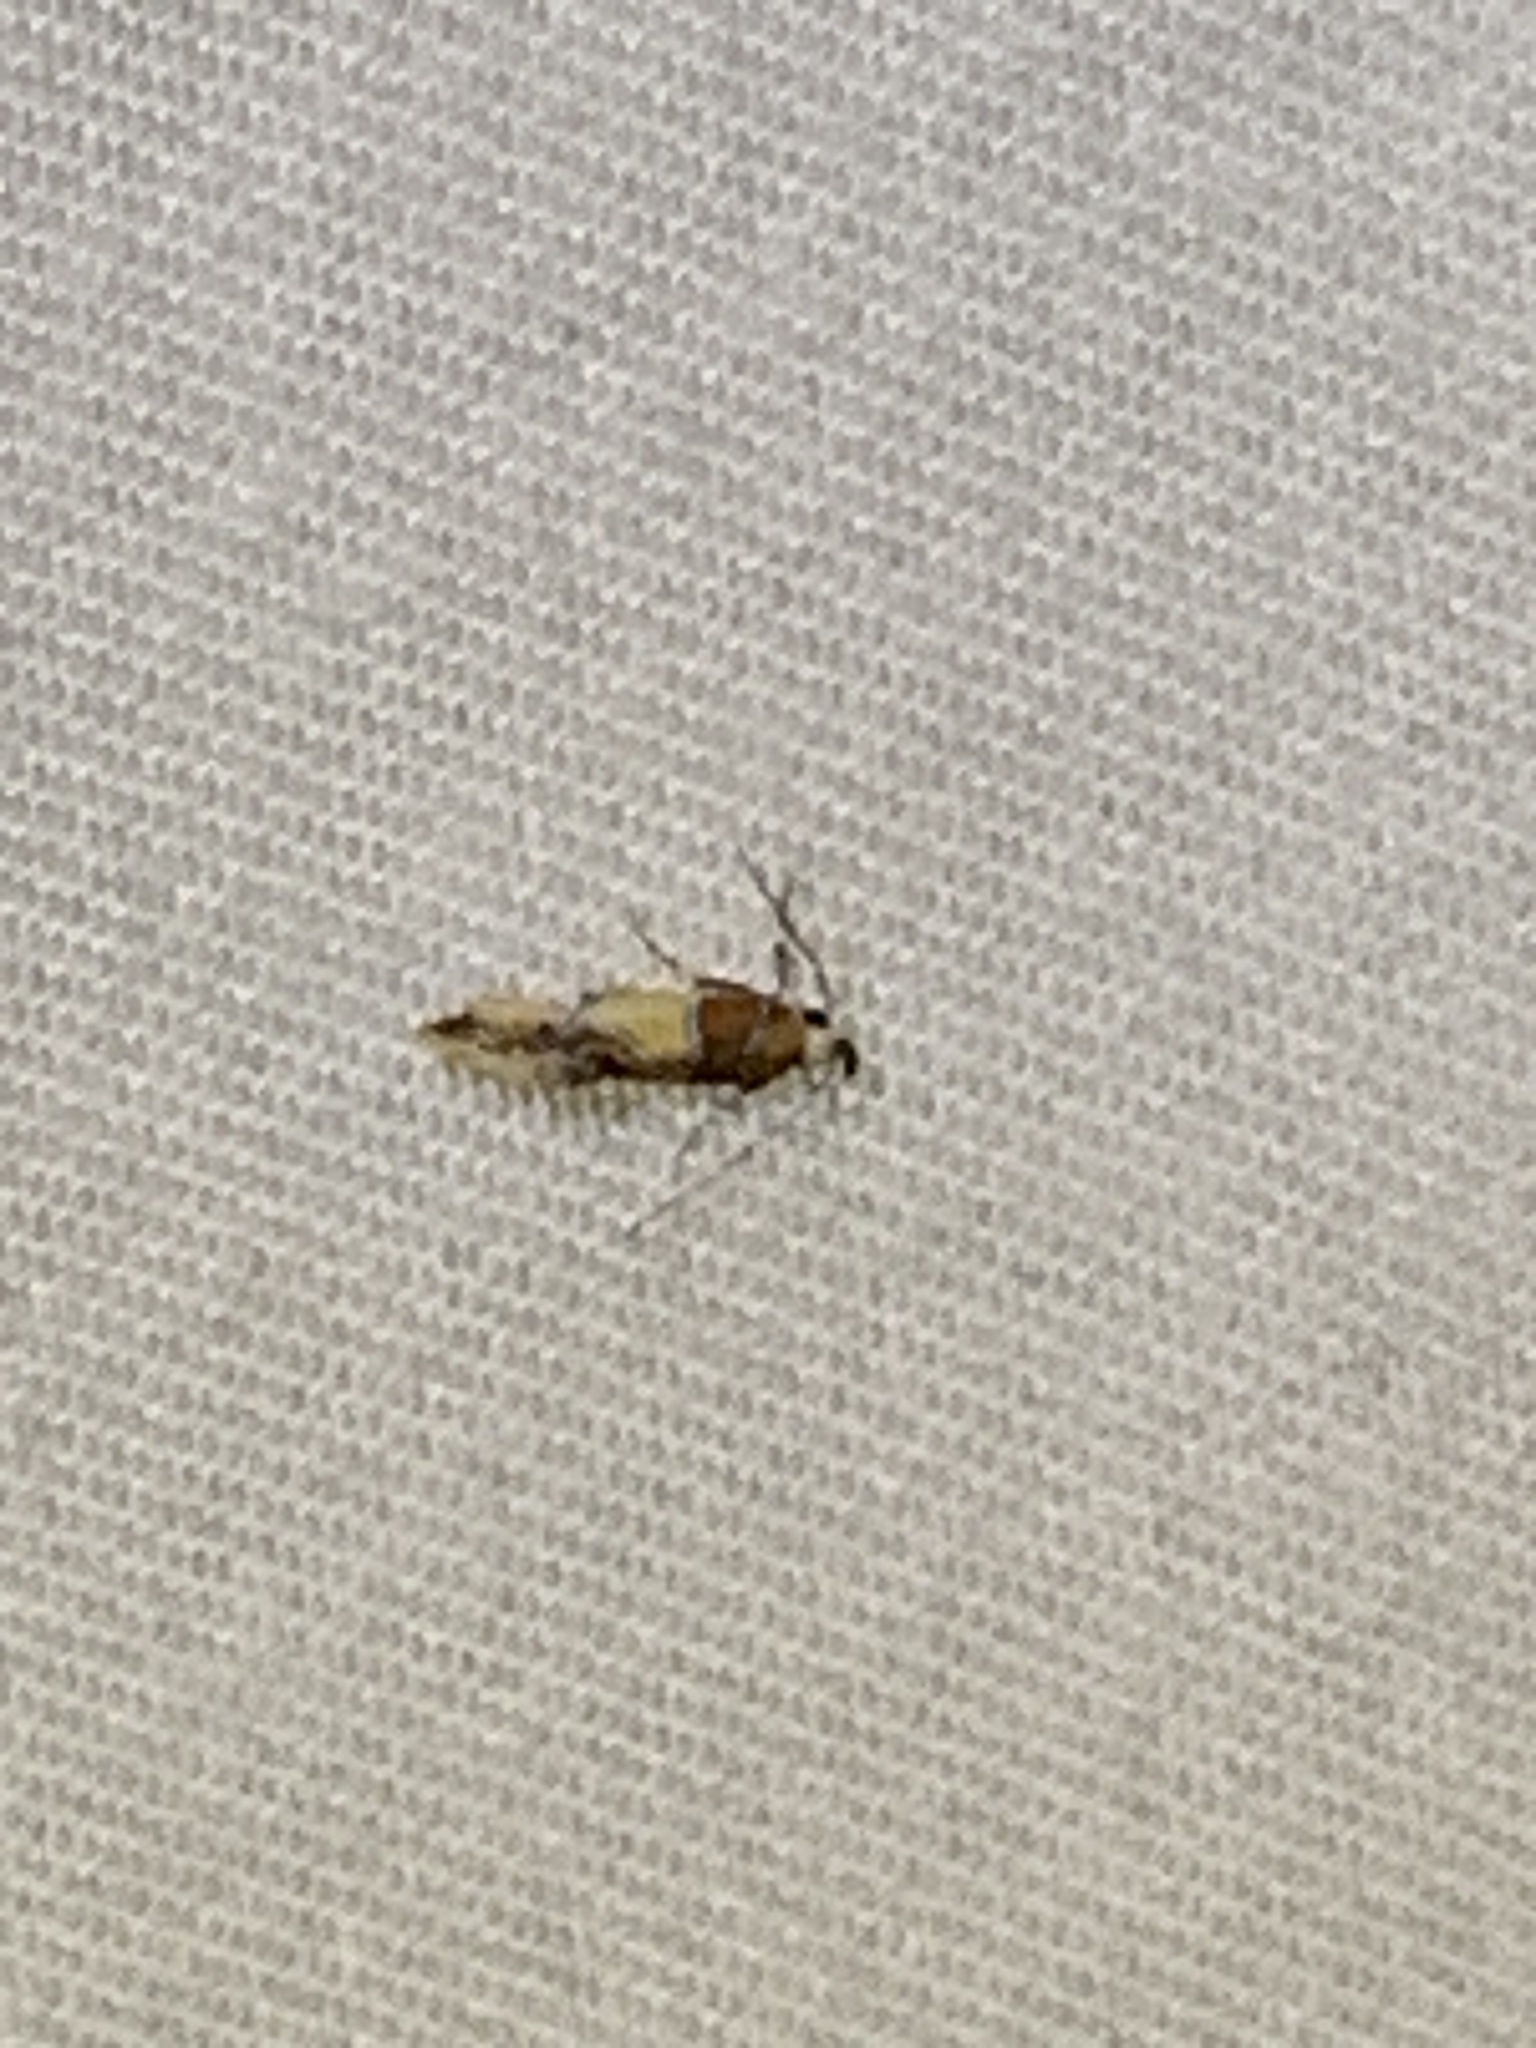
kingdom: Animalia
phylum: Arthropoda
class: Insecta
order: Lepidoptera
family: Oecophoridae
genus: Callima
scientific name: Callima argenticinctella
